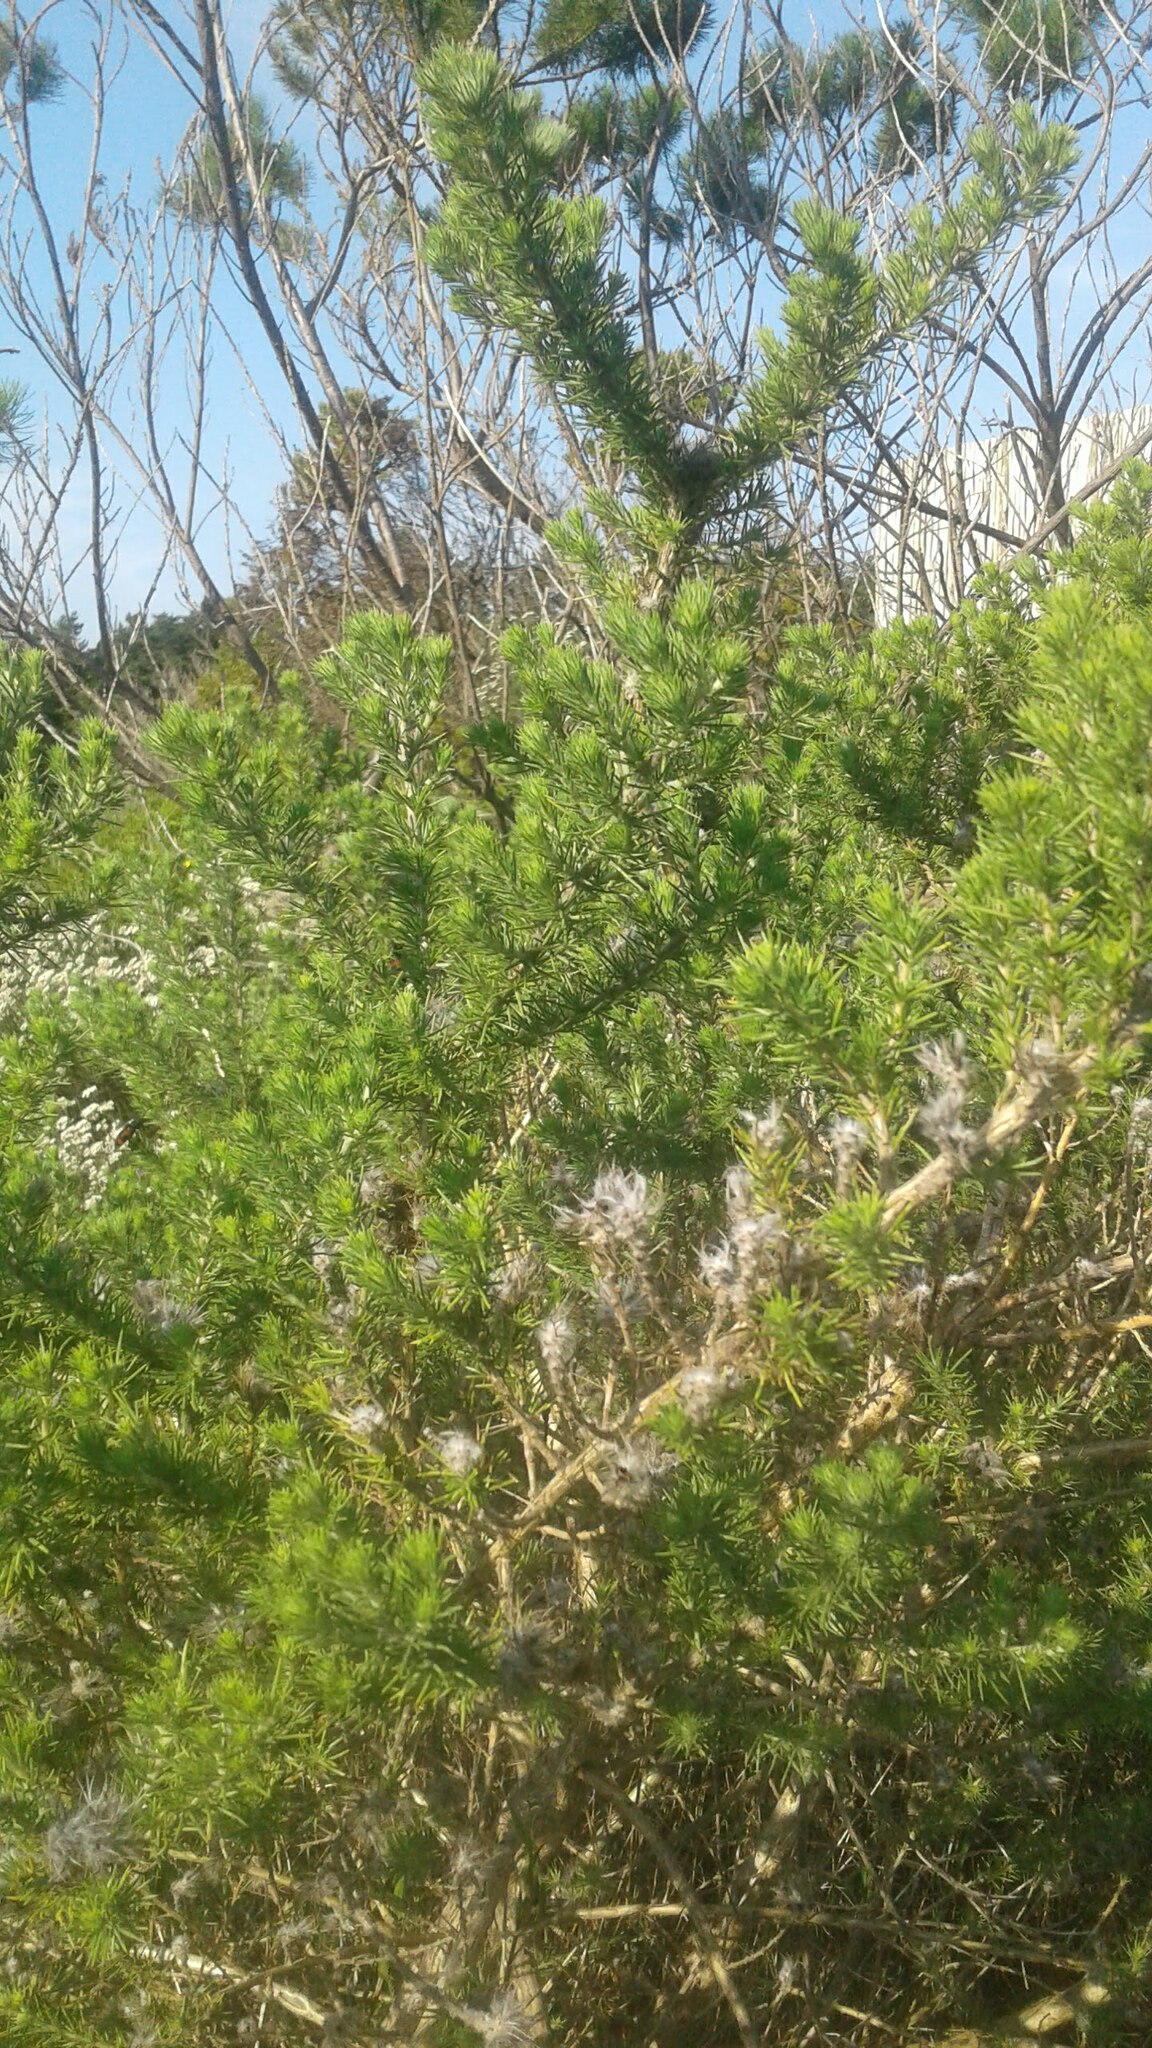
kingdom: Plantae
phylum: Tracheophyta
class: Magnoliopsida
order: Fabales
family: Fabaceae
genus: Aspalathus
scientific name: Aspalathus chenopoda
